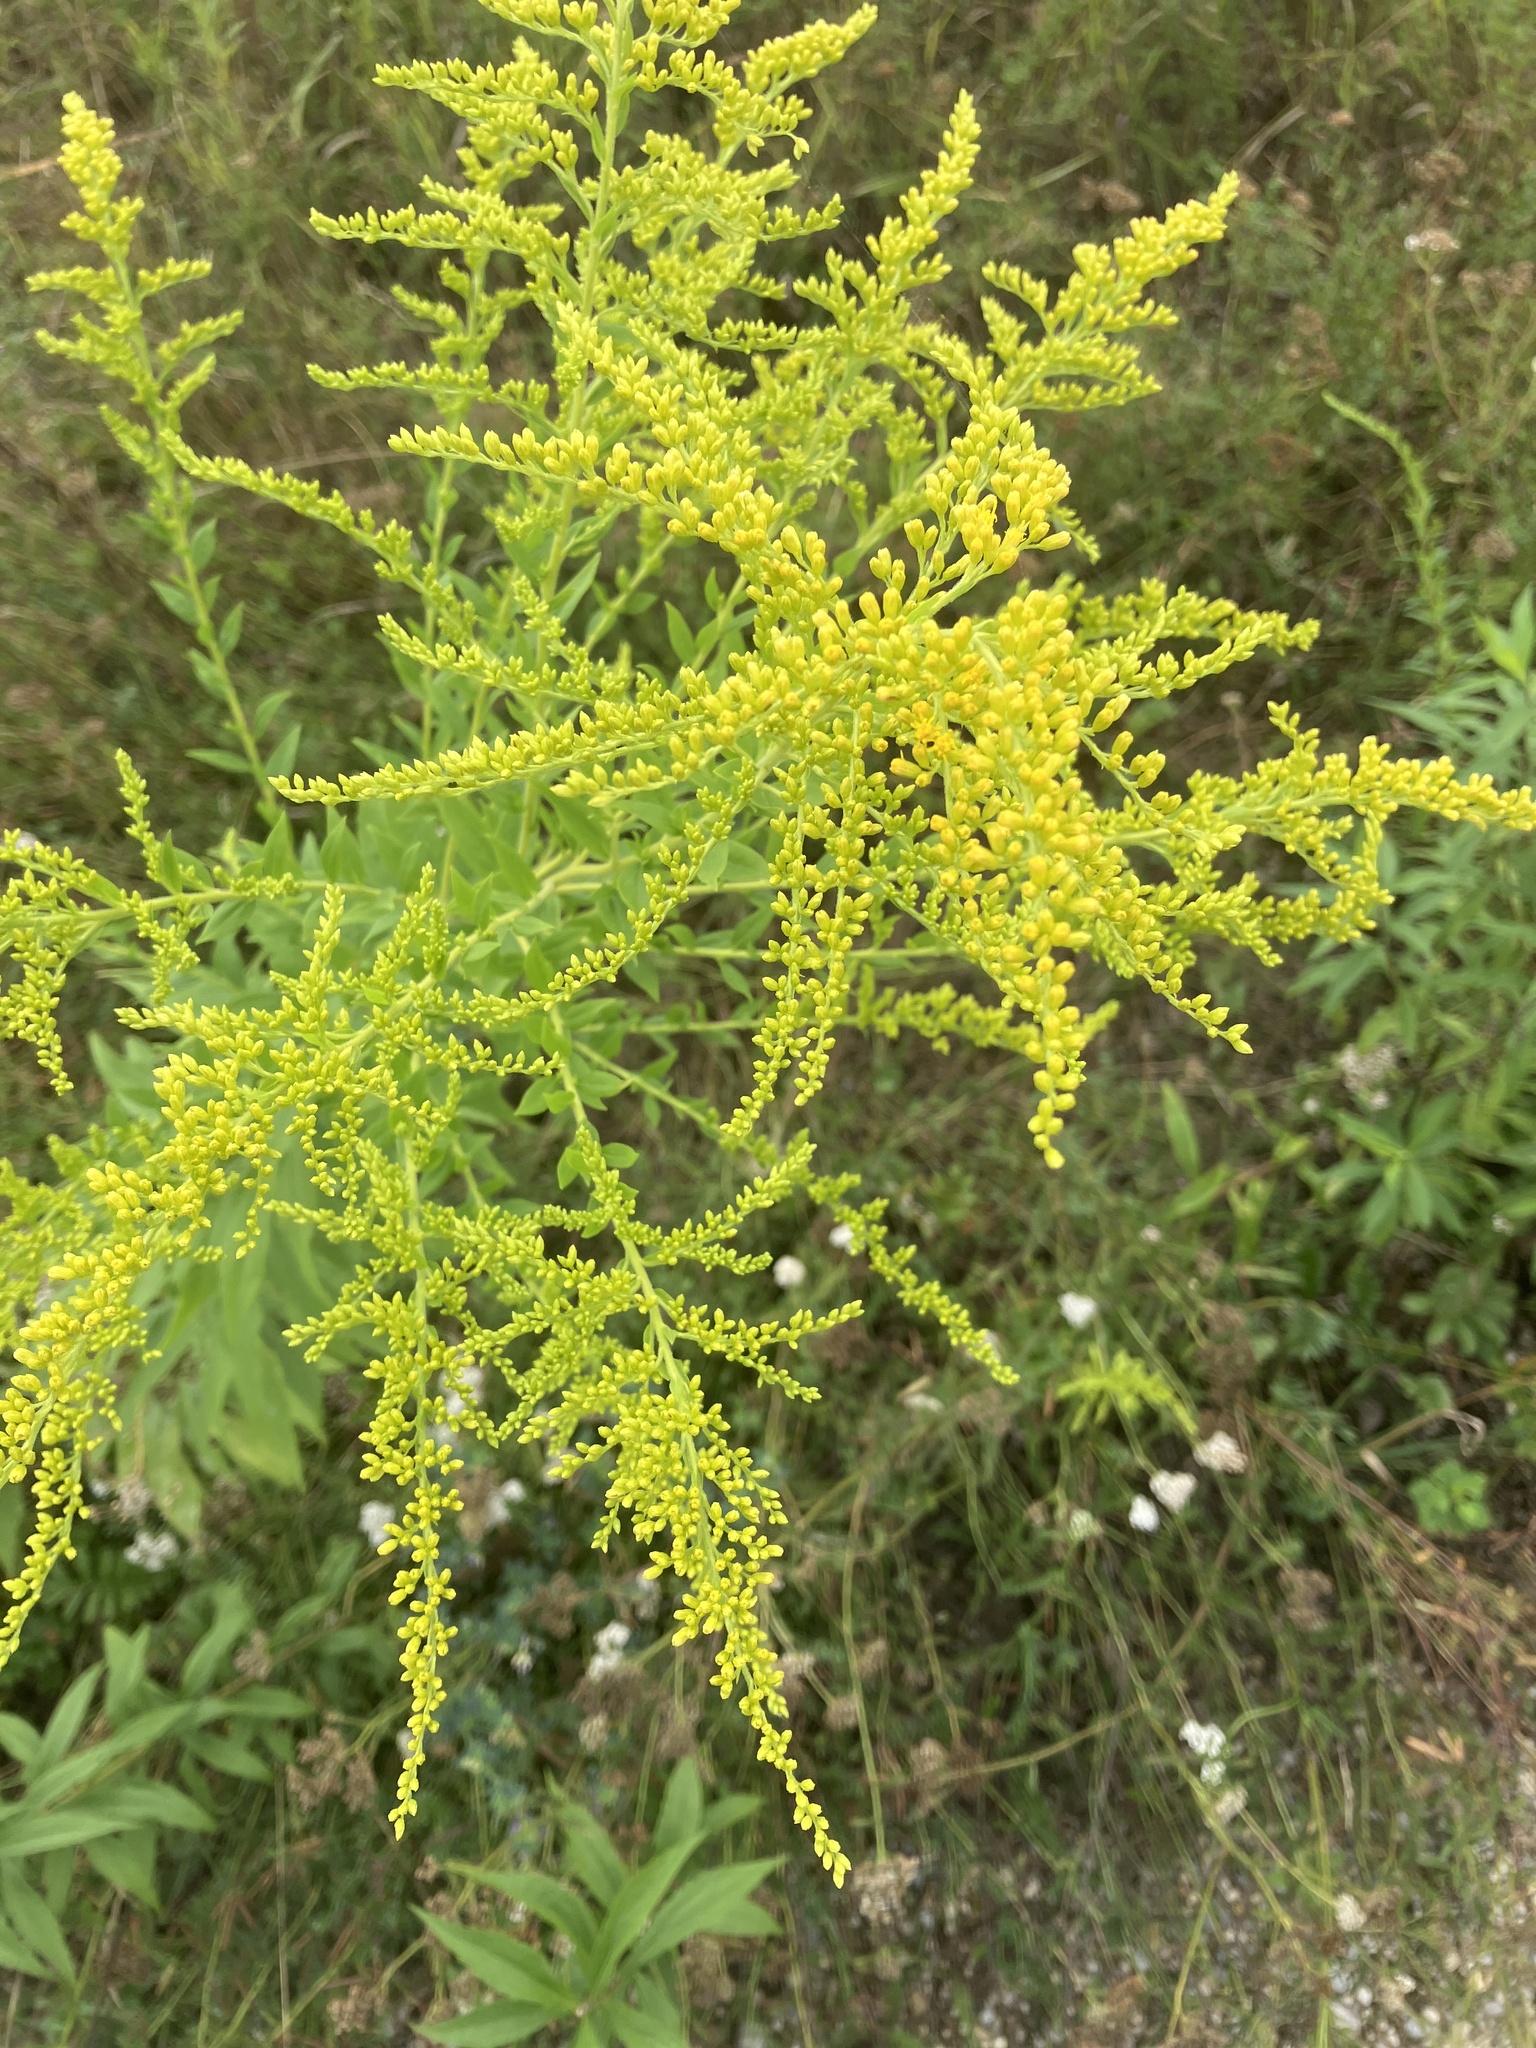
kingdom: Plantae
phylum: Tracheophyta
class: Magnoliopsida
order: Asterales
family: Asteraceae
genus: Solidago
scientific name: Solidago gigantea
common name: Giant goldenrod
